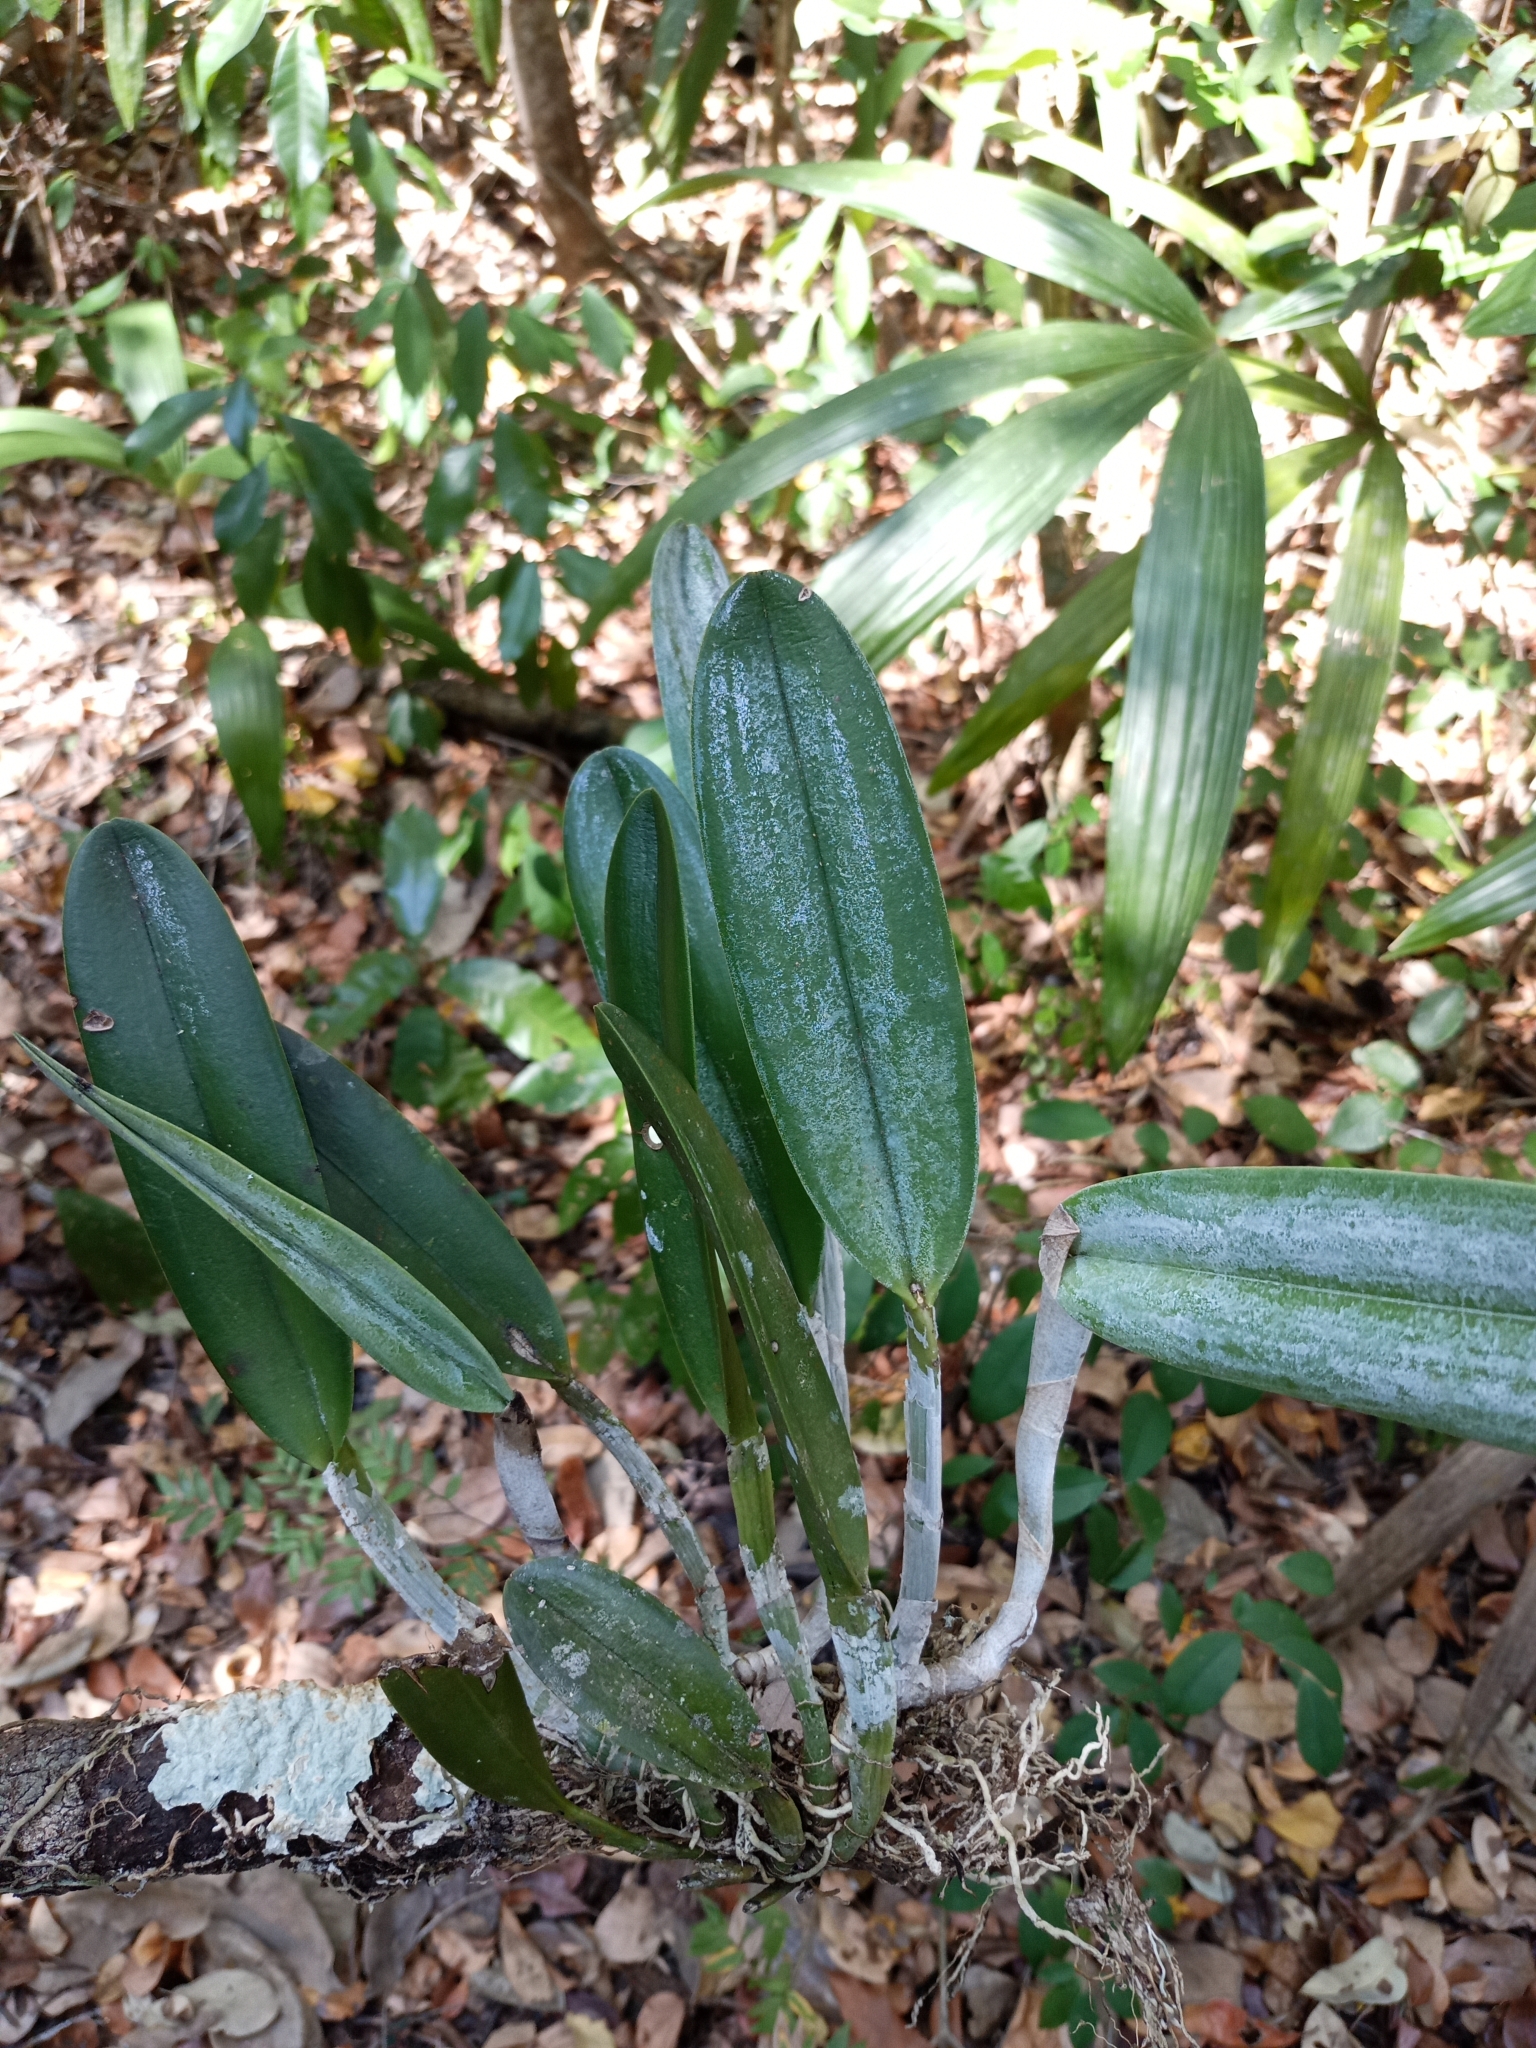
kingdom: Plantae
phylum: Tracheophyta
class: Liliopsida
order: Asparagales
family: Orchidaceae
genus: Rhyncholaelia
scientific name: Rhyncholaelia digbyana
